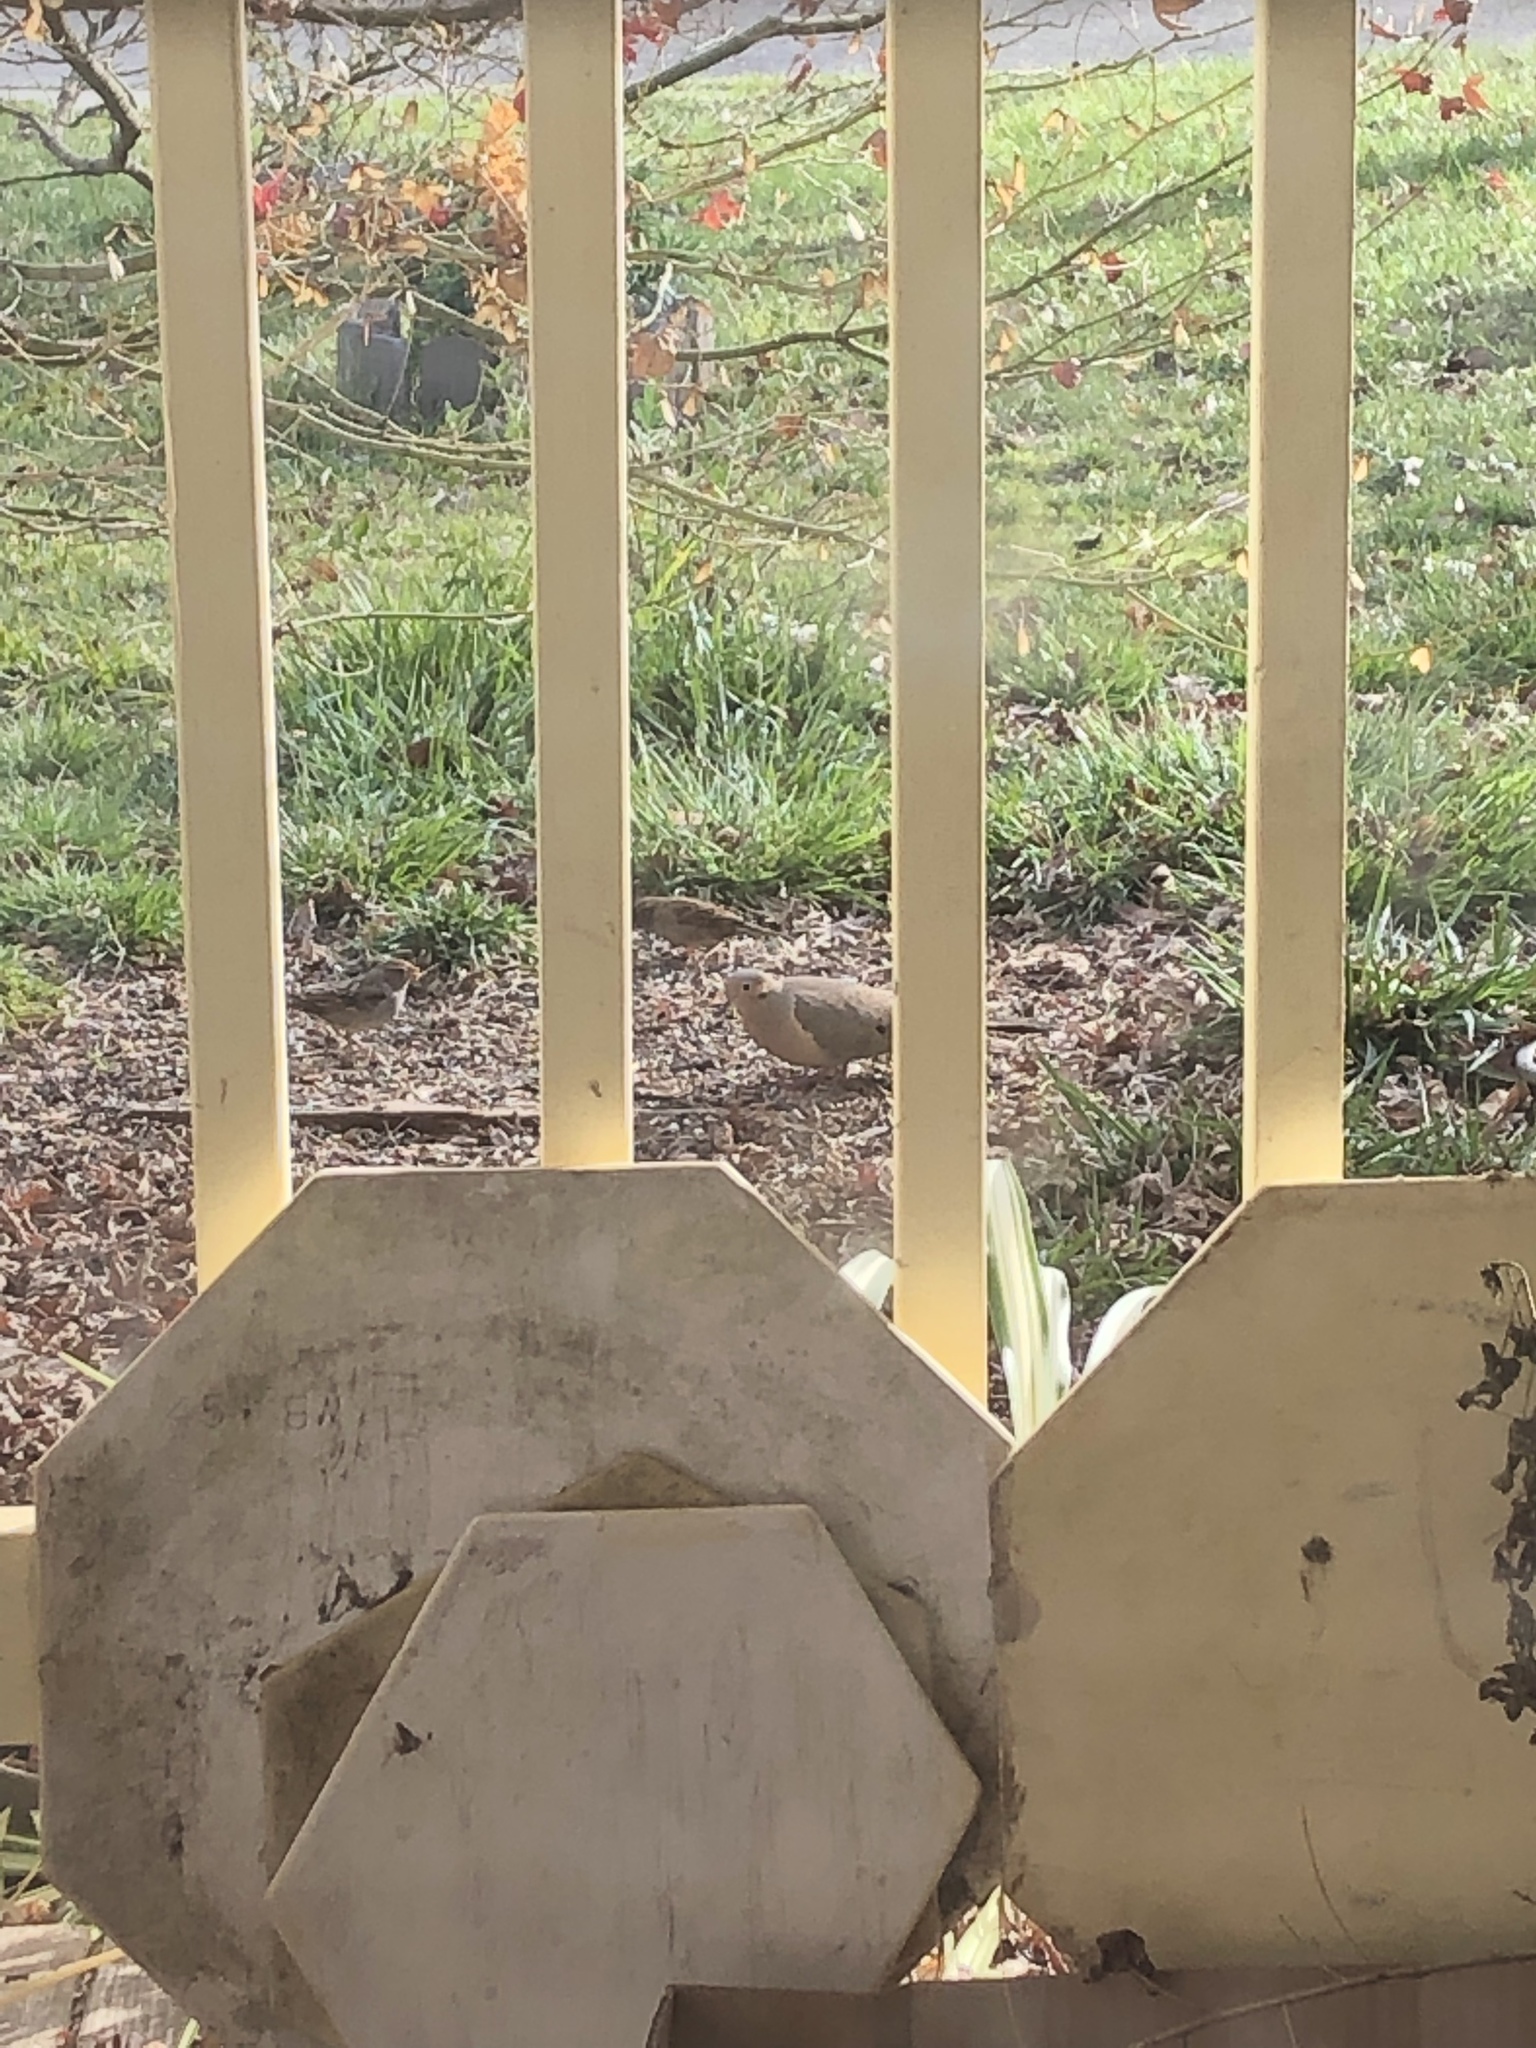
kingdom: Animalia
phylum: Chordata
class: Aves
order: Columbiformes
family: Columbidae
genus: Zenaida
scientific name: Zenaida macroura
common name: Mourning dove
